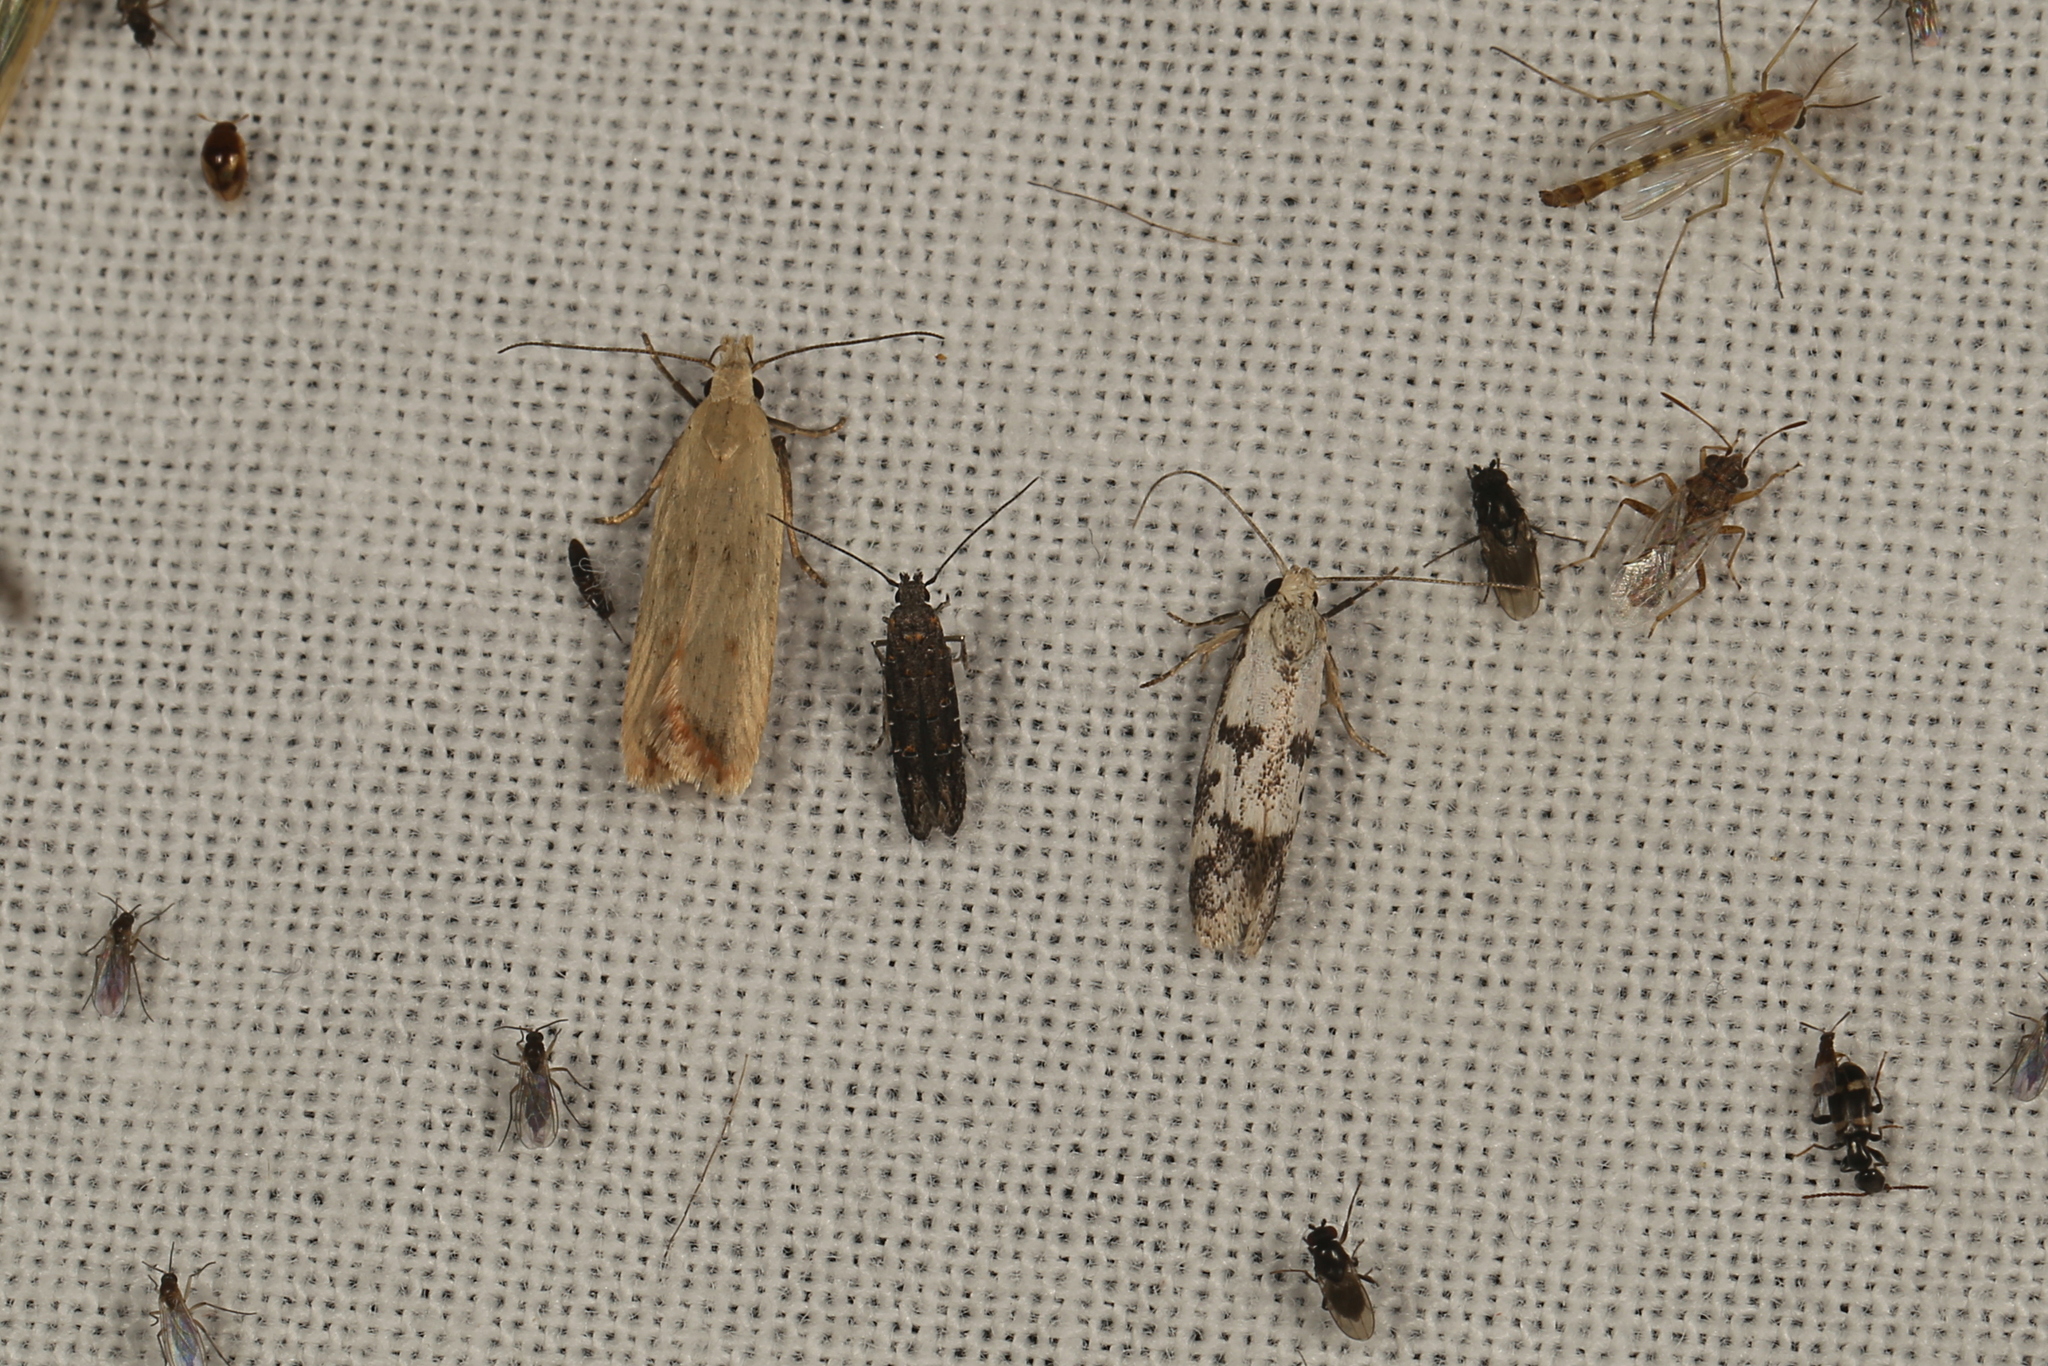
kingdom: Animalia
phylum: Arthropoda
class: Insecta
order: Lepidoptera
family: Gelechiidae
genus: Dichomeris
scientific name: Dichomeris cirrhostola
